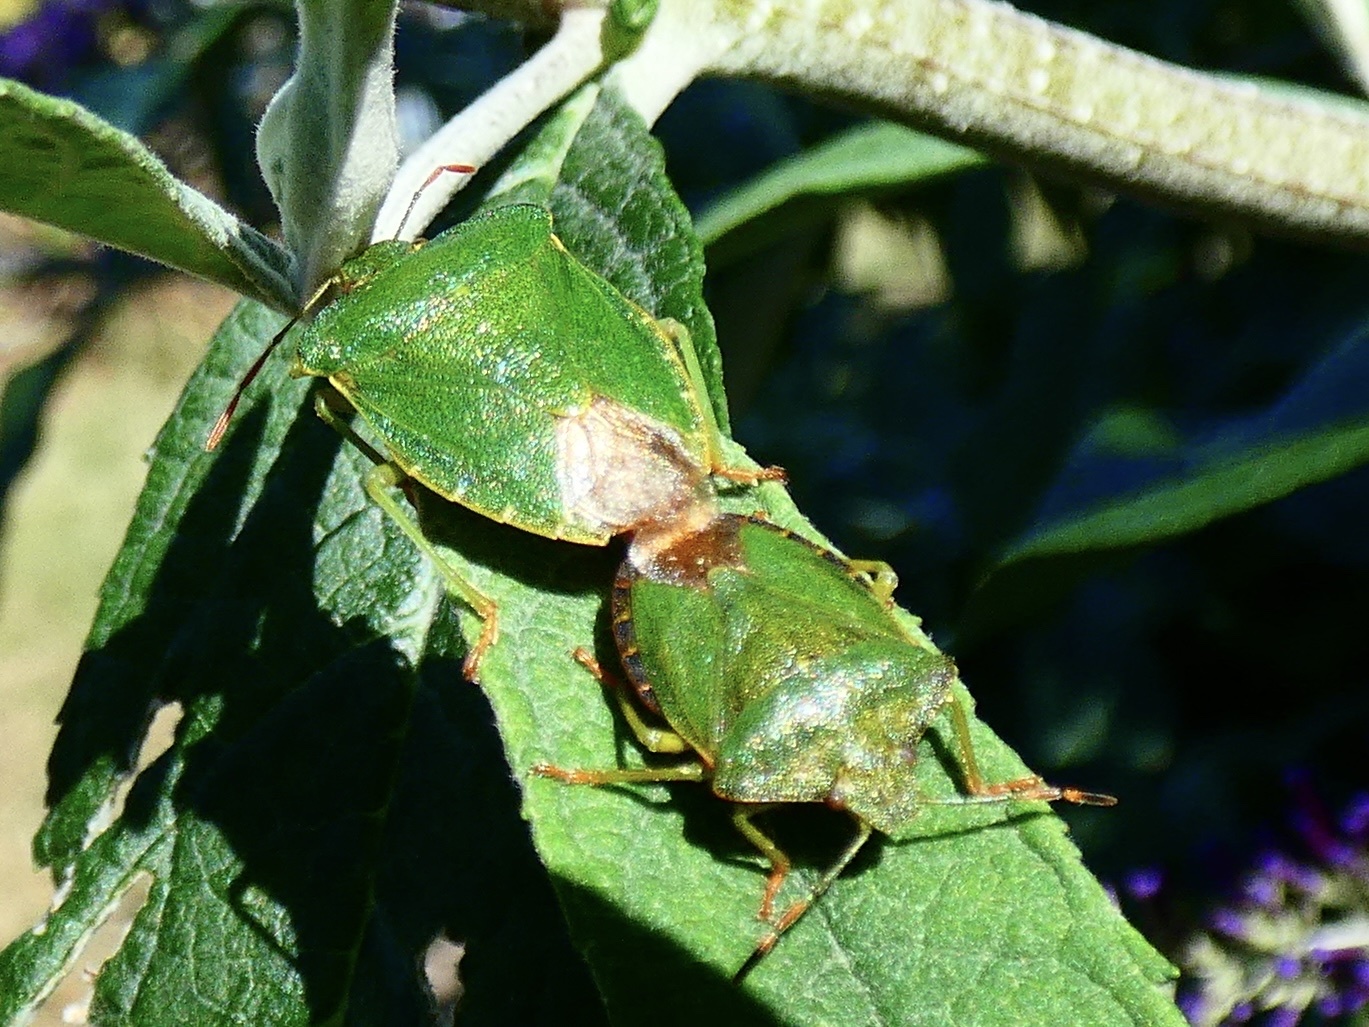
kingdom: Animalia
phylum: Arthropoda
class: Insecta
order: Hemiptera
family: Pentatomidae
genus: Palomena
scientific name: Palomena prasina
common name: Green shieldbug
